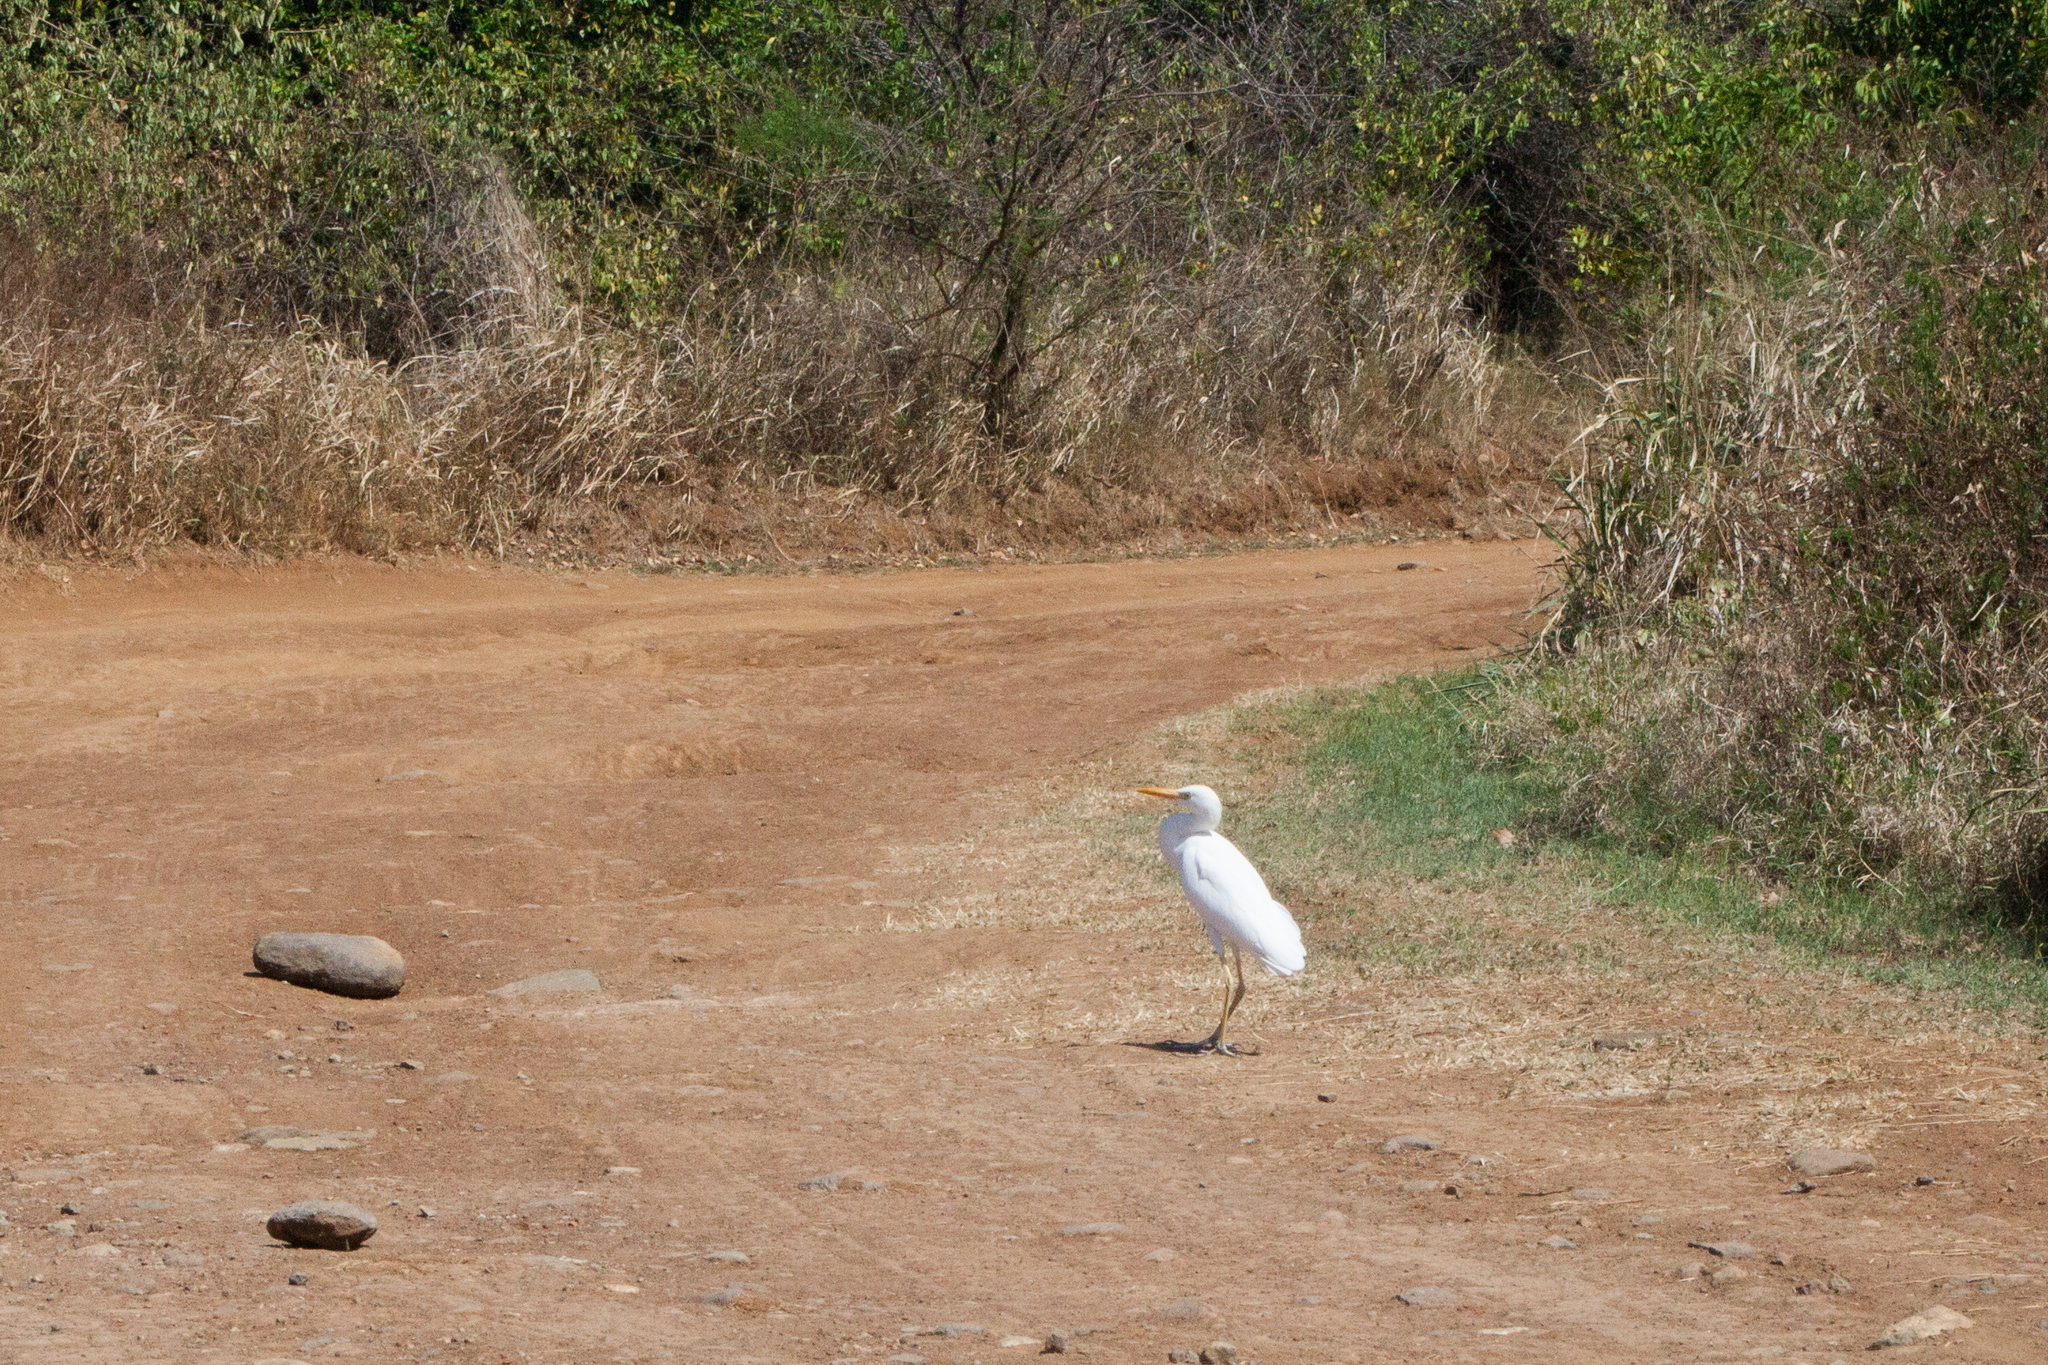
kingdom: Animalia
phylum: Chordata
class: Aves
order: Pelecaniformes
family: Ardeidae
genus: Bubulcus
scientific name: Bubulcus ibis
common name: Cattle egret
